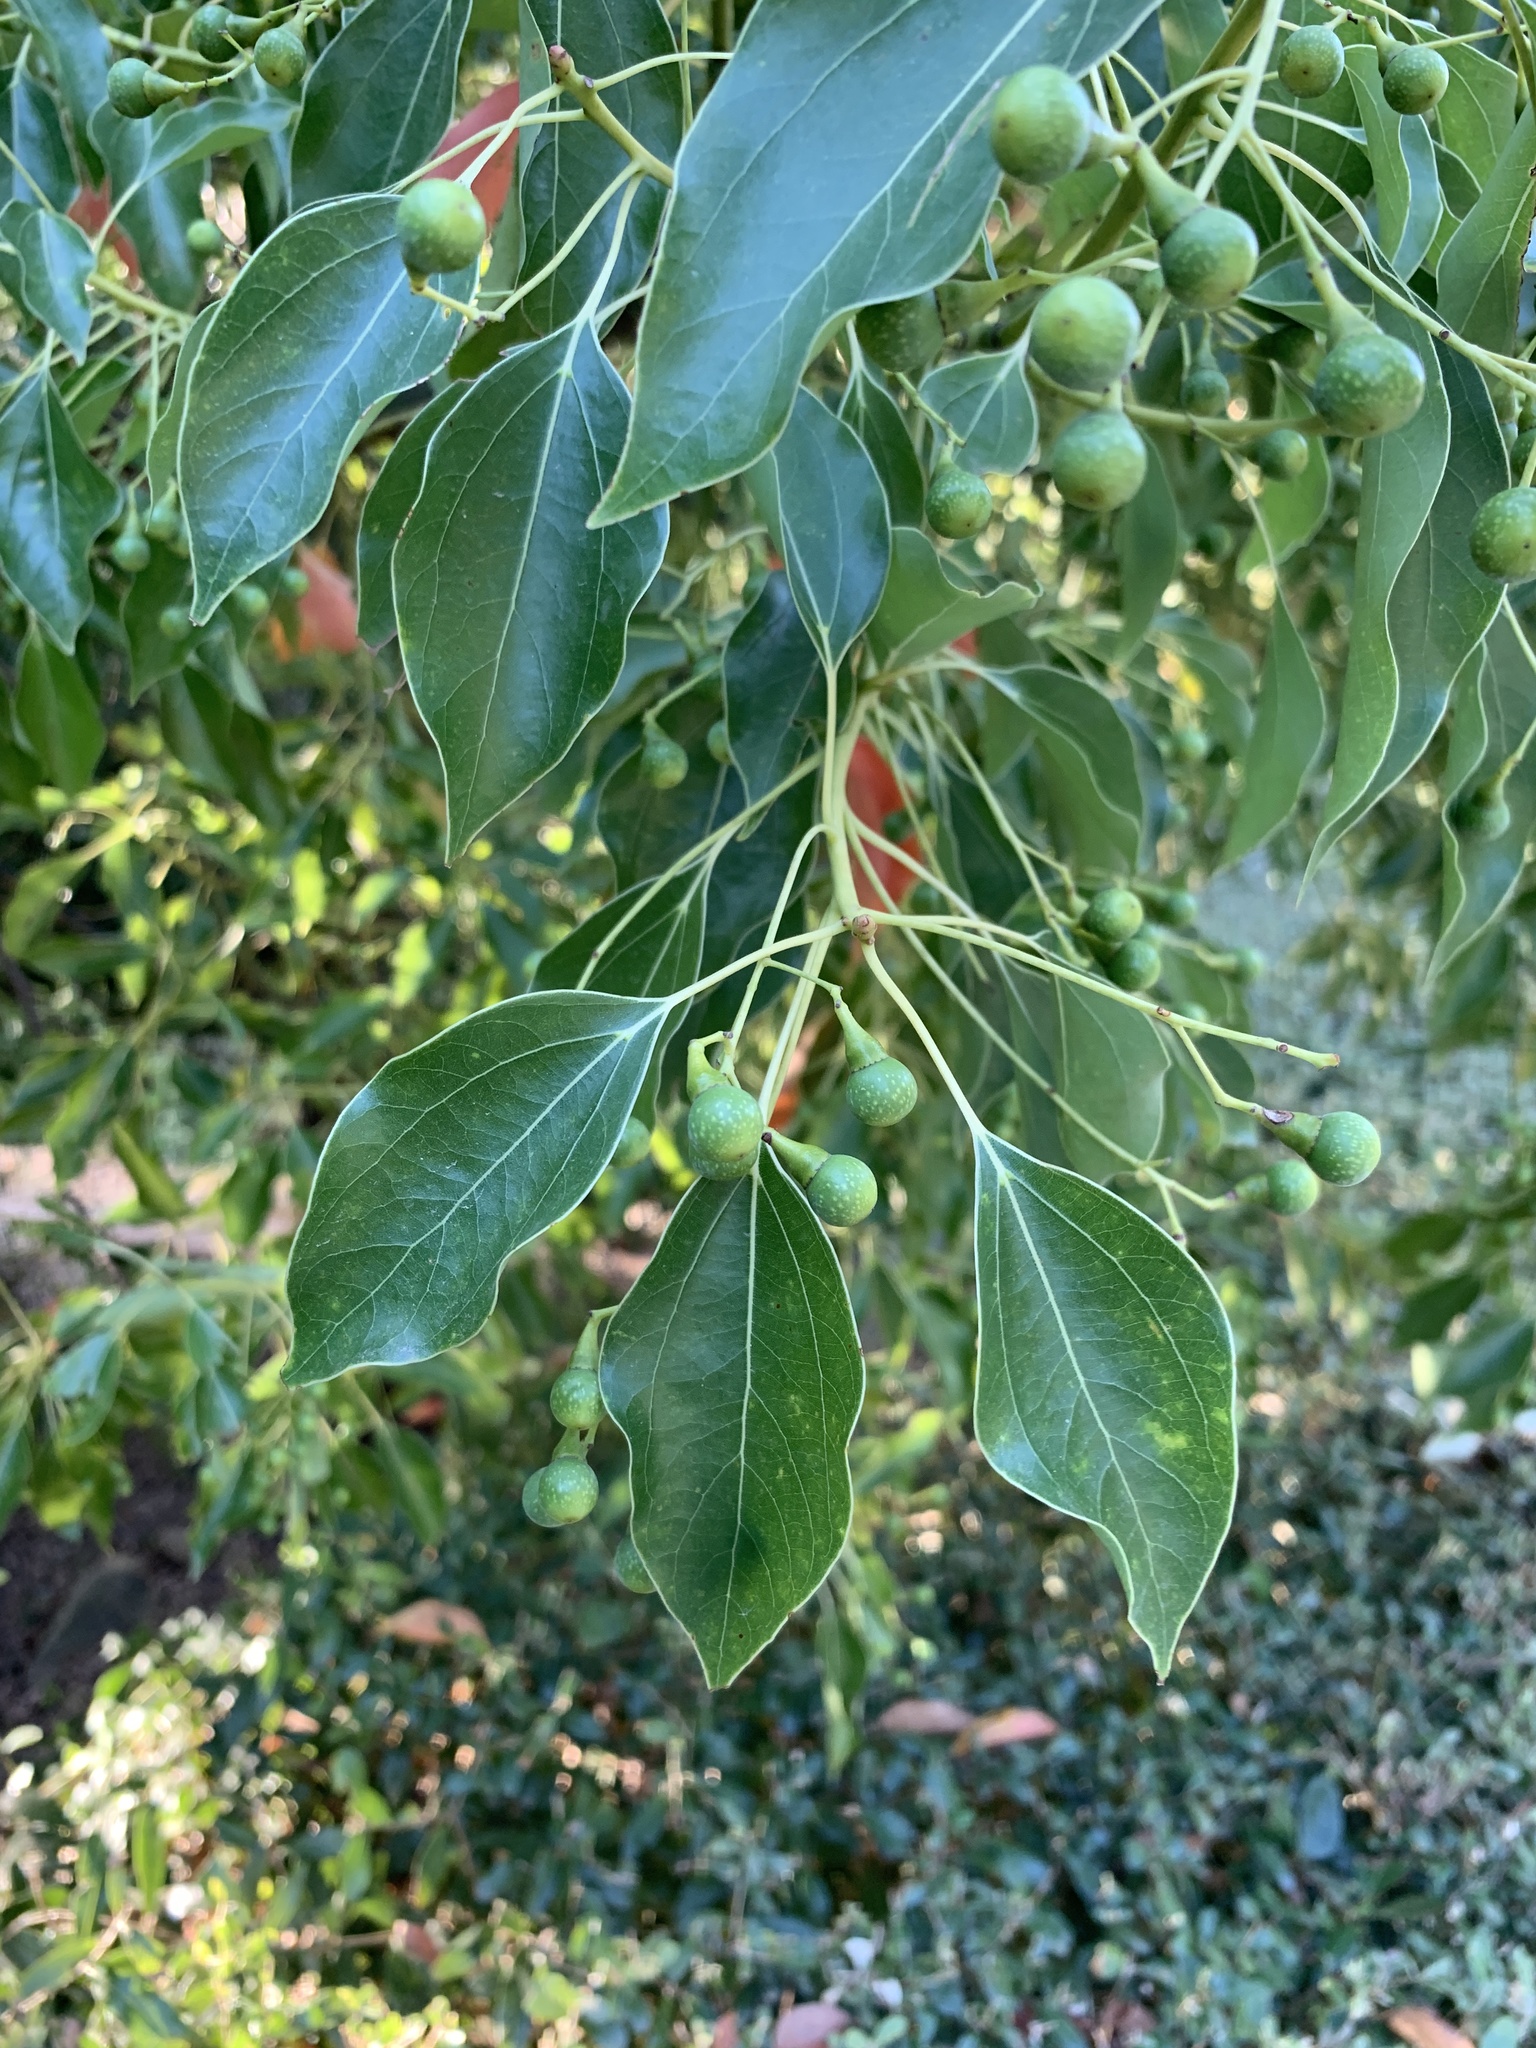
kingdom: Plantae
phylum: Tracheophyta
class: Magnoliopsida
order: Laurales
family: Lauraceae
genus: Cinnamomum
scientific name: Cinnamomum camphora
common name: Camphortree
